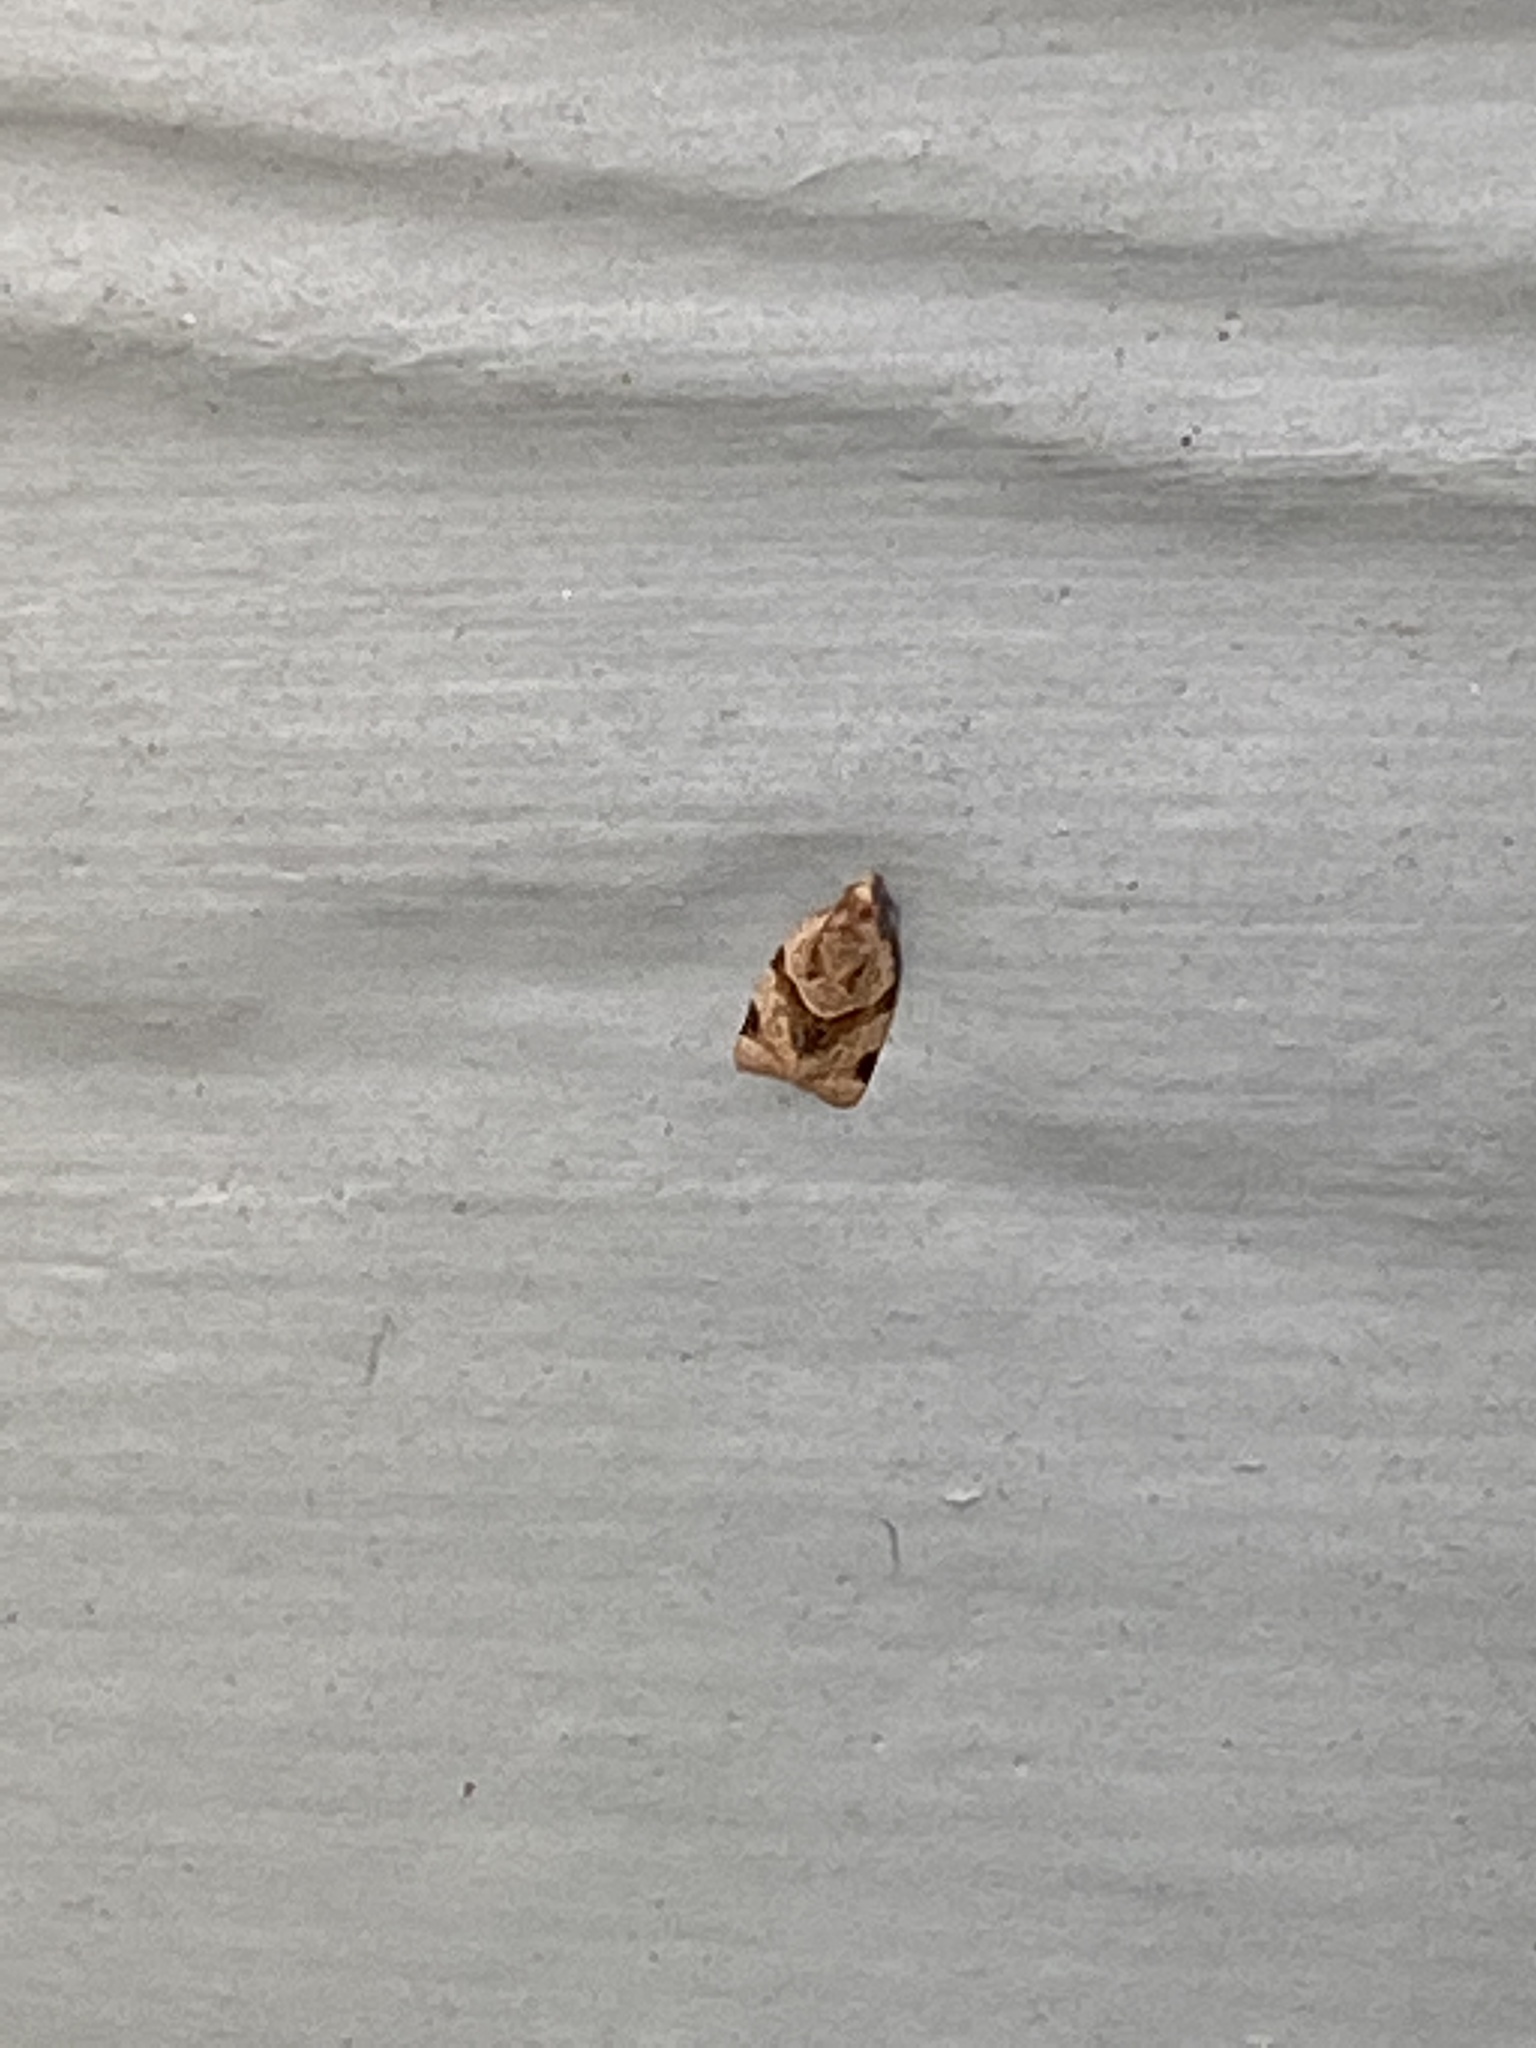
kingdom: Animalia
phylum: Arthropoda
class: Insecta
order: Lepidoptera
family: Tortricidae
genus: Clepsis
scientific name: Clepsis peritana
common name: Garden tortrix
